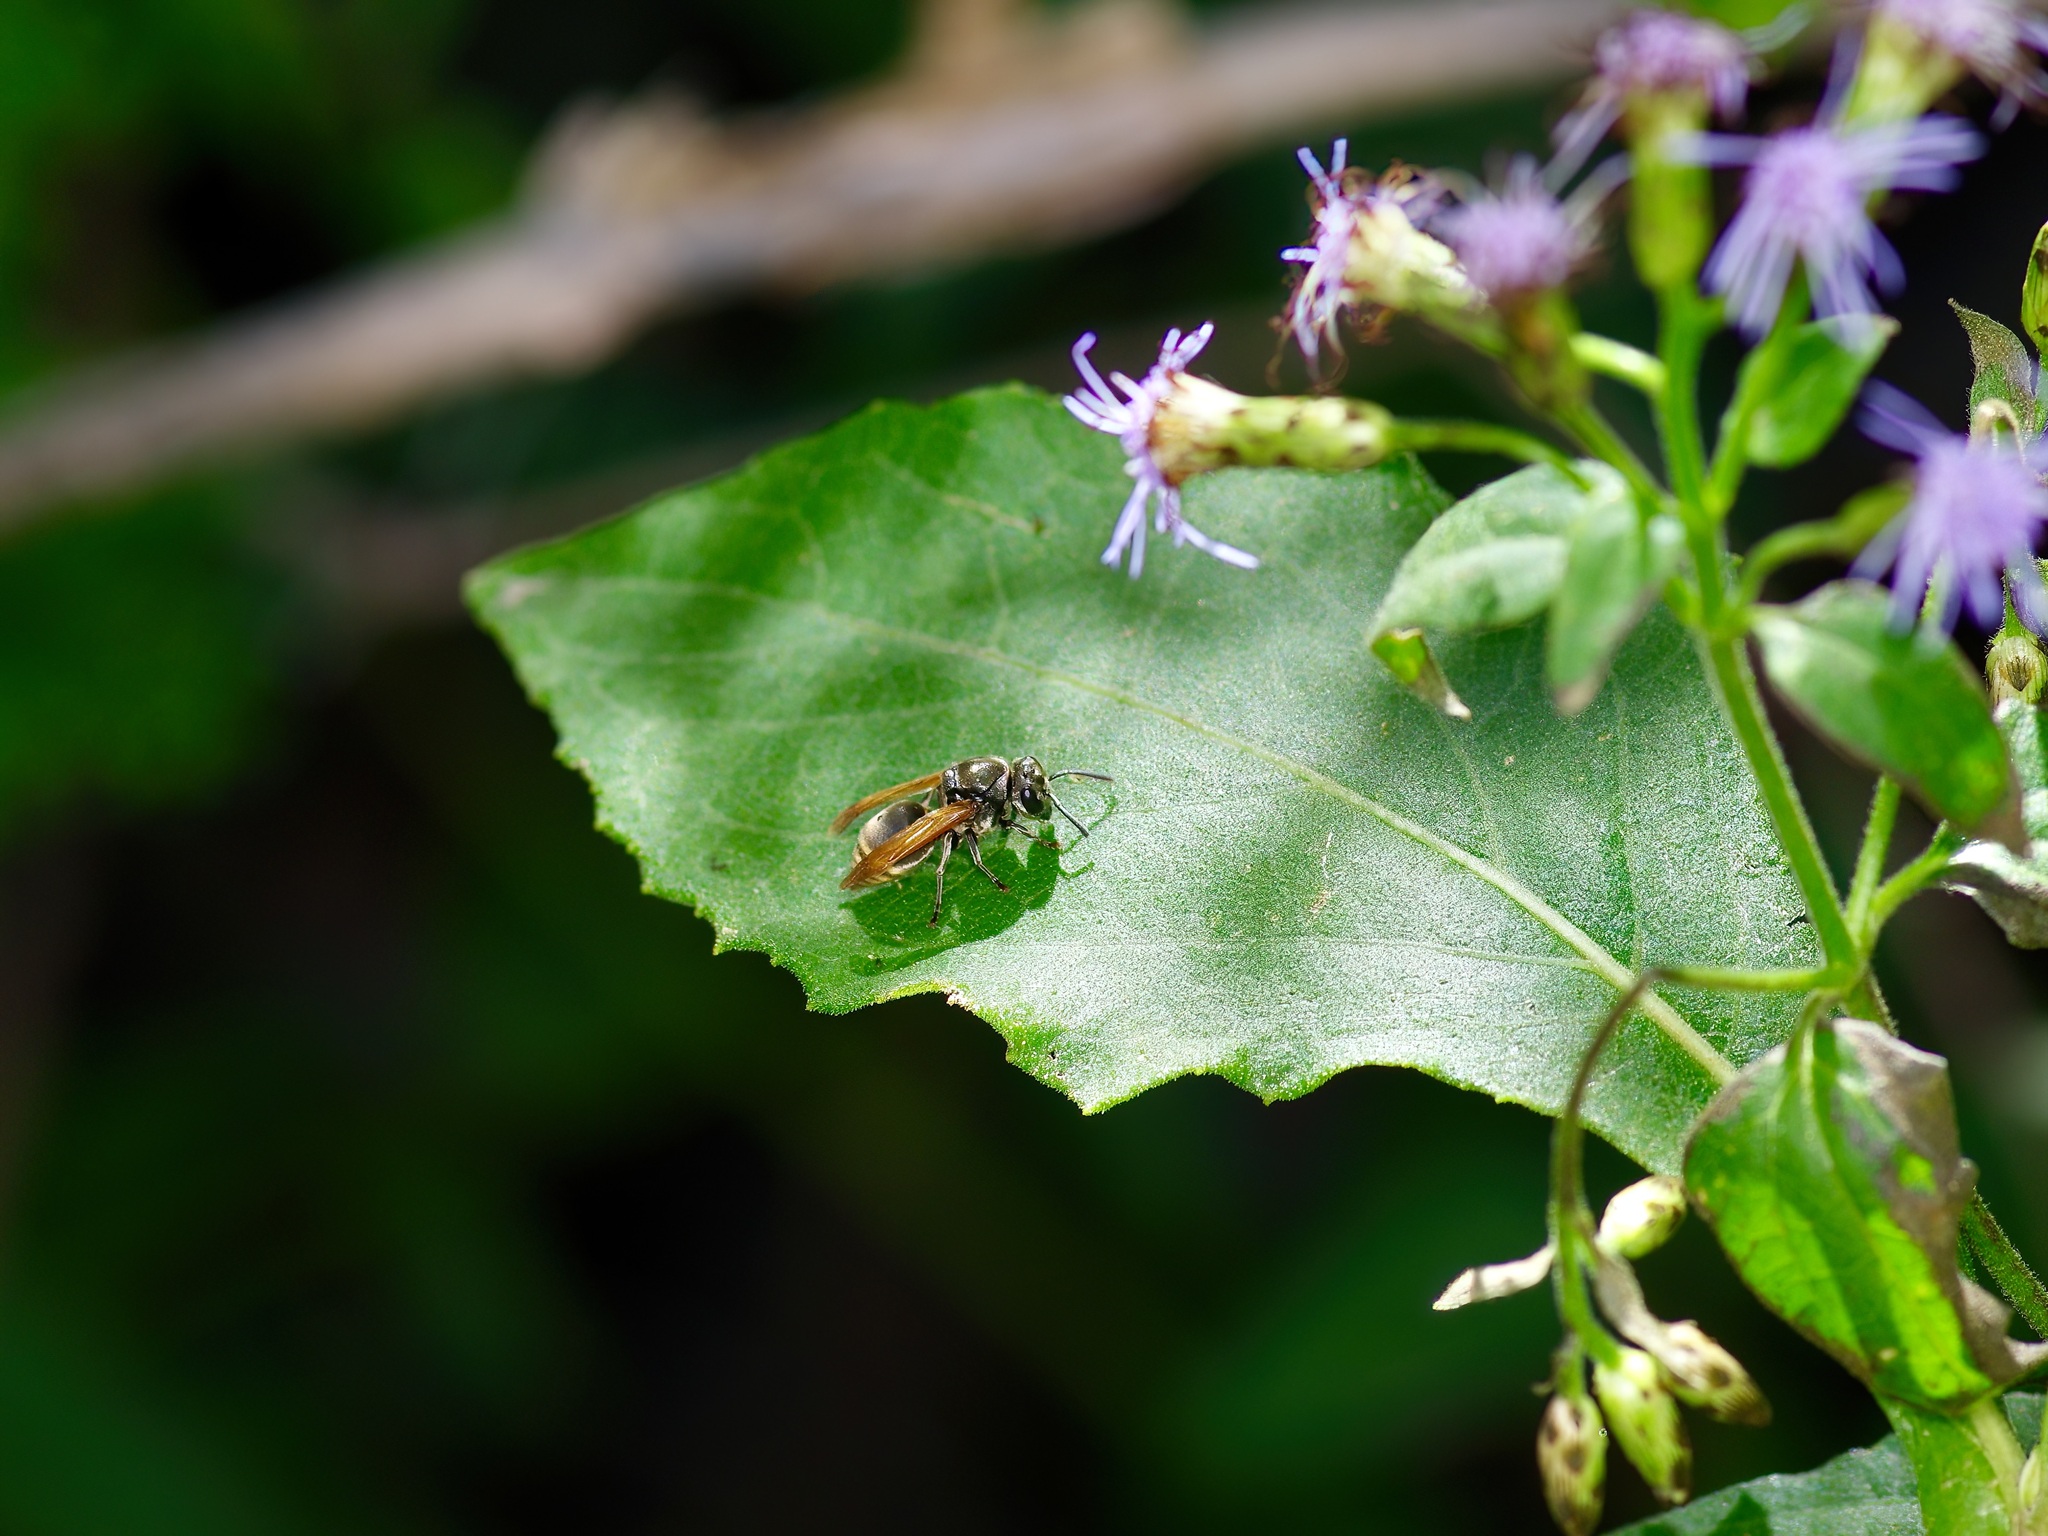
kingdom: Animalia
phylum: Arthropoda
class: Insecta
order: Hymenoptera
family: Vespidae
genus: Brachygastra
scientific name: Brachygastra mellifica
